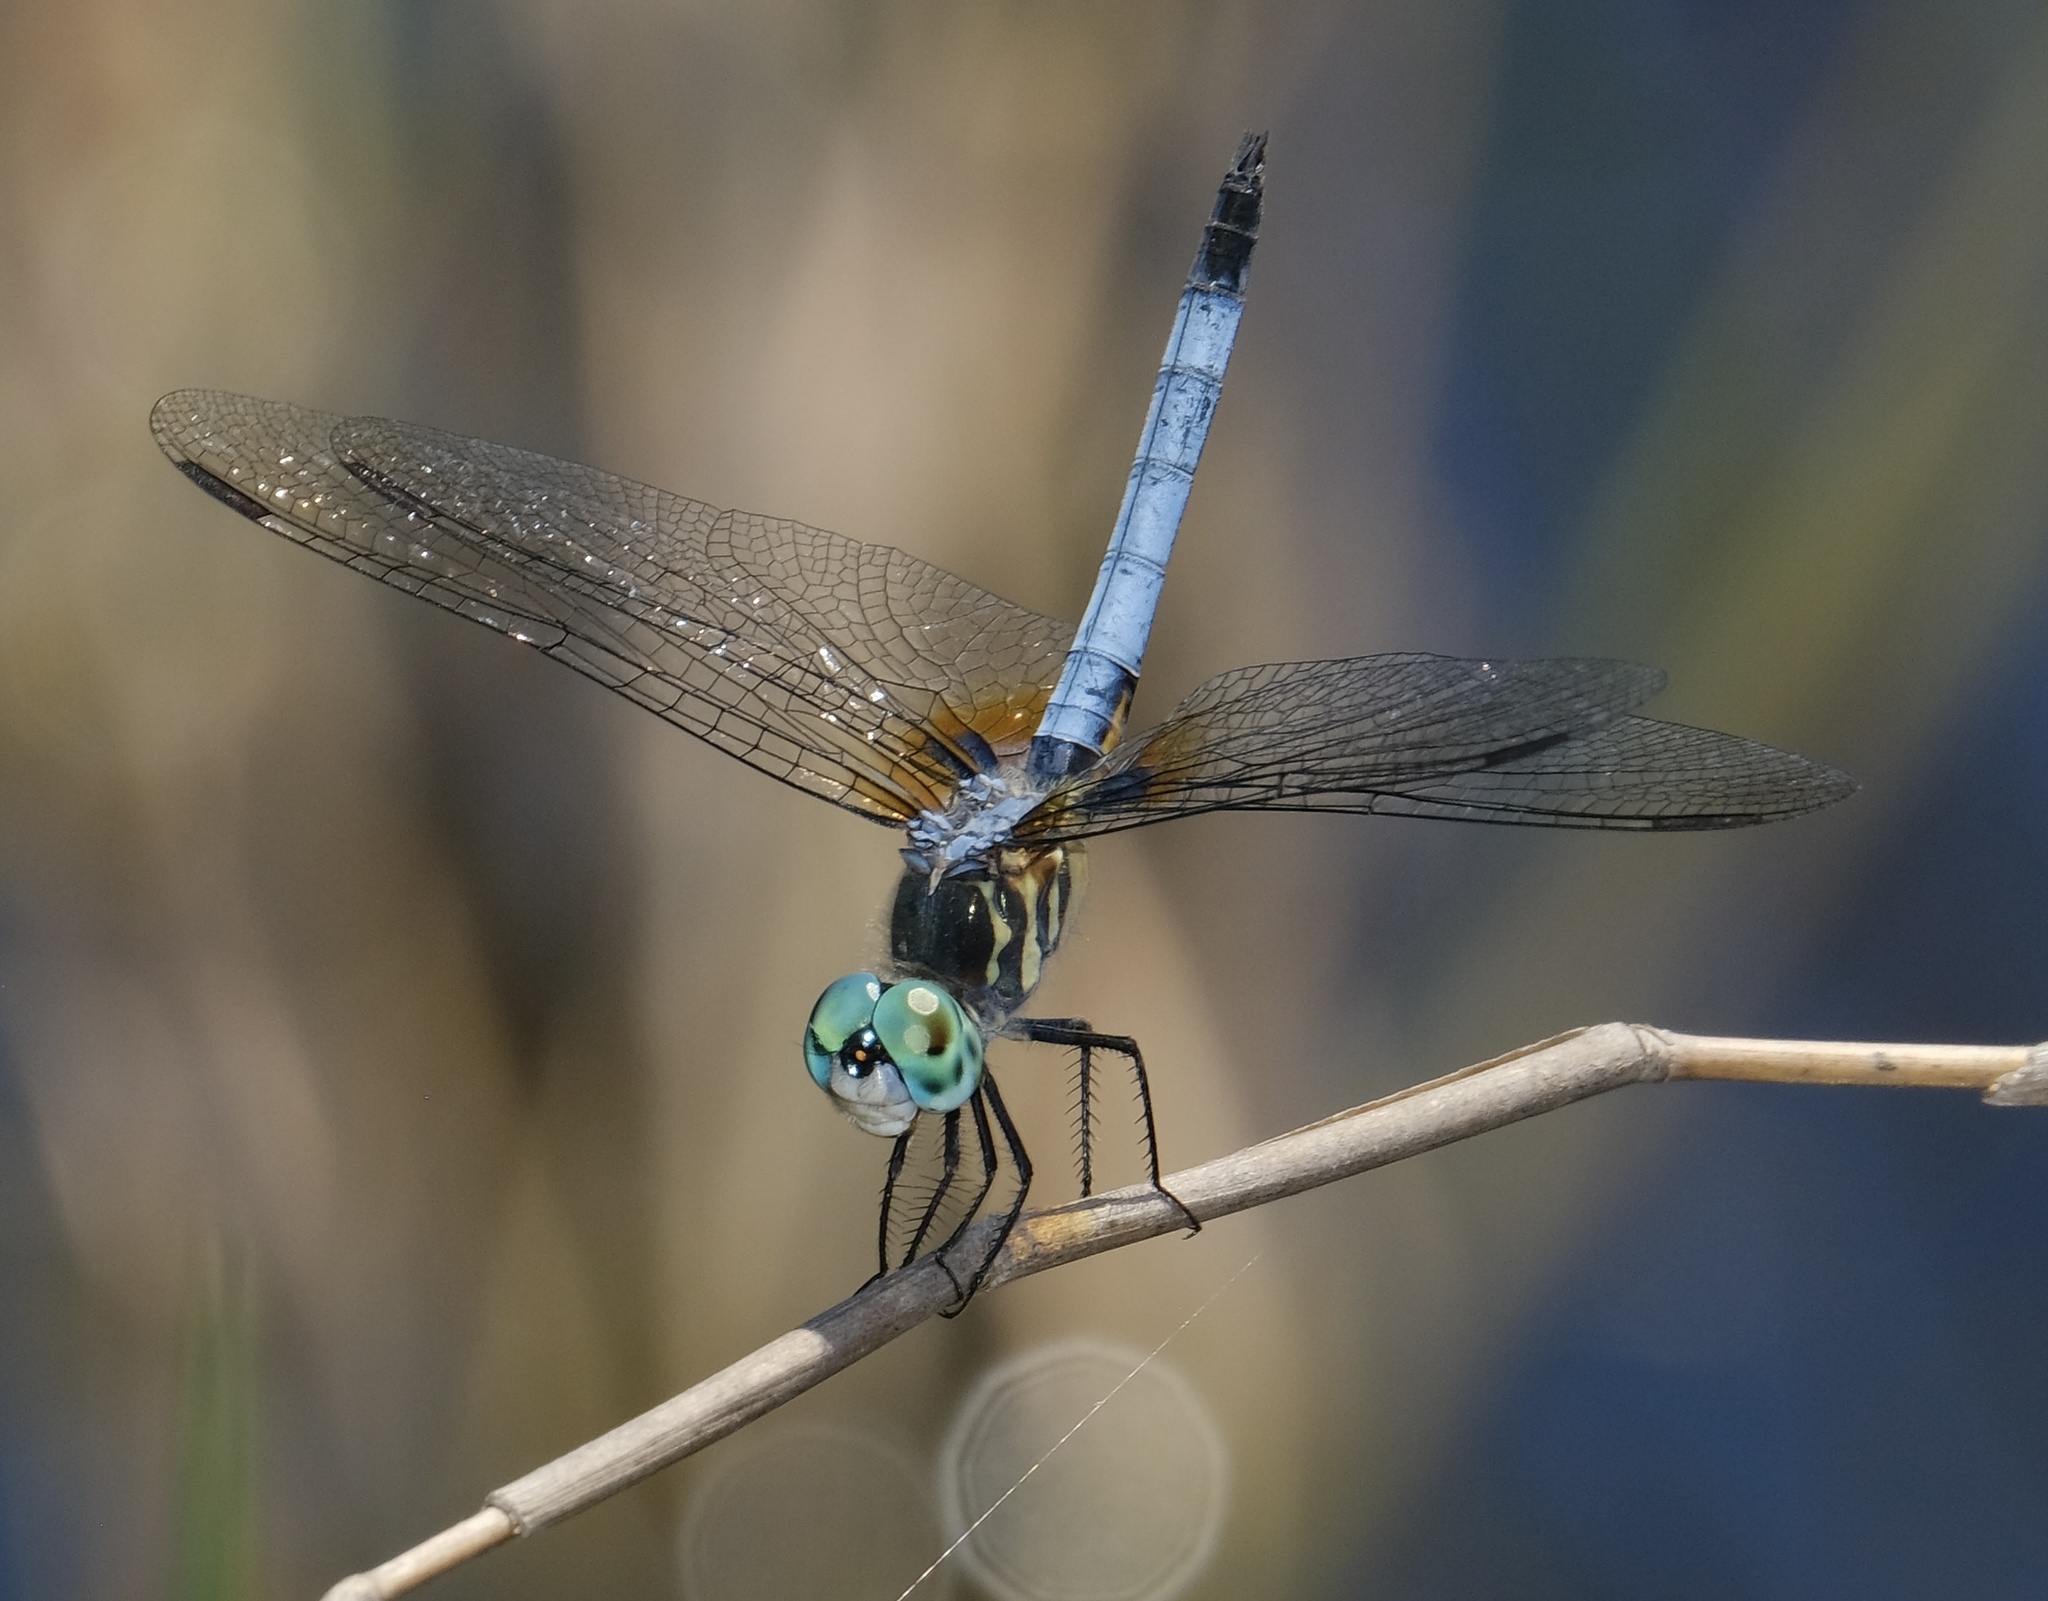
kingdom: Animalia
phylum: Arthropoda
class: Insecta
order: Odonata
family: Libellulidae
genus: Pachydiplax
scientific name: Pachydiplax longipennis
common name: Blue dasher
